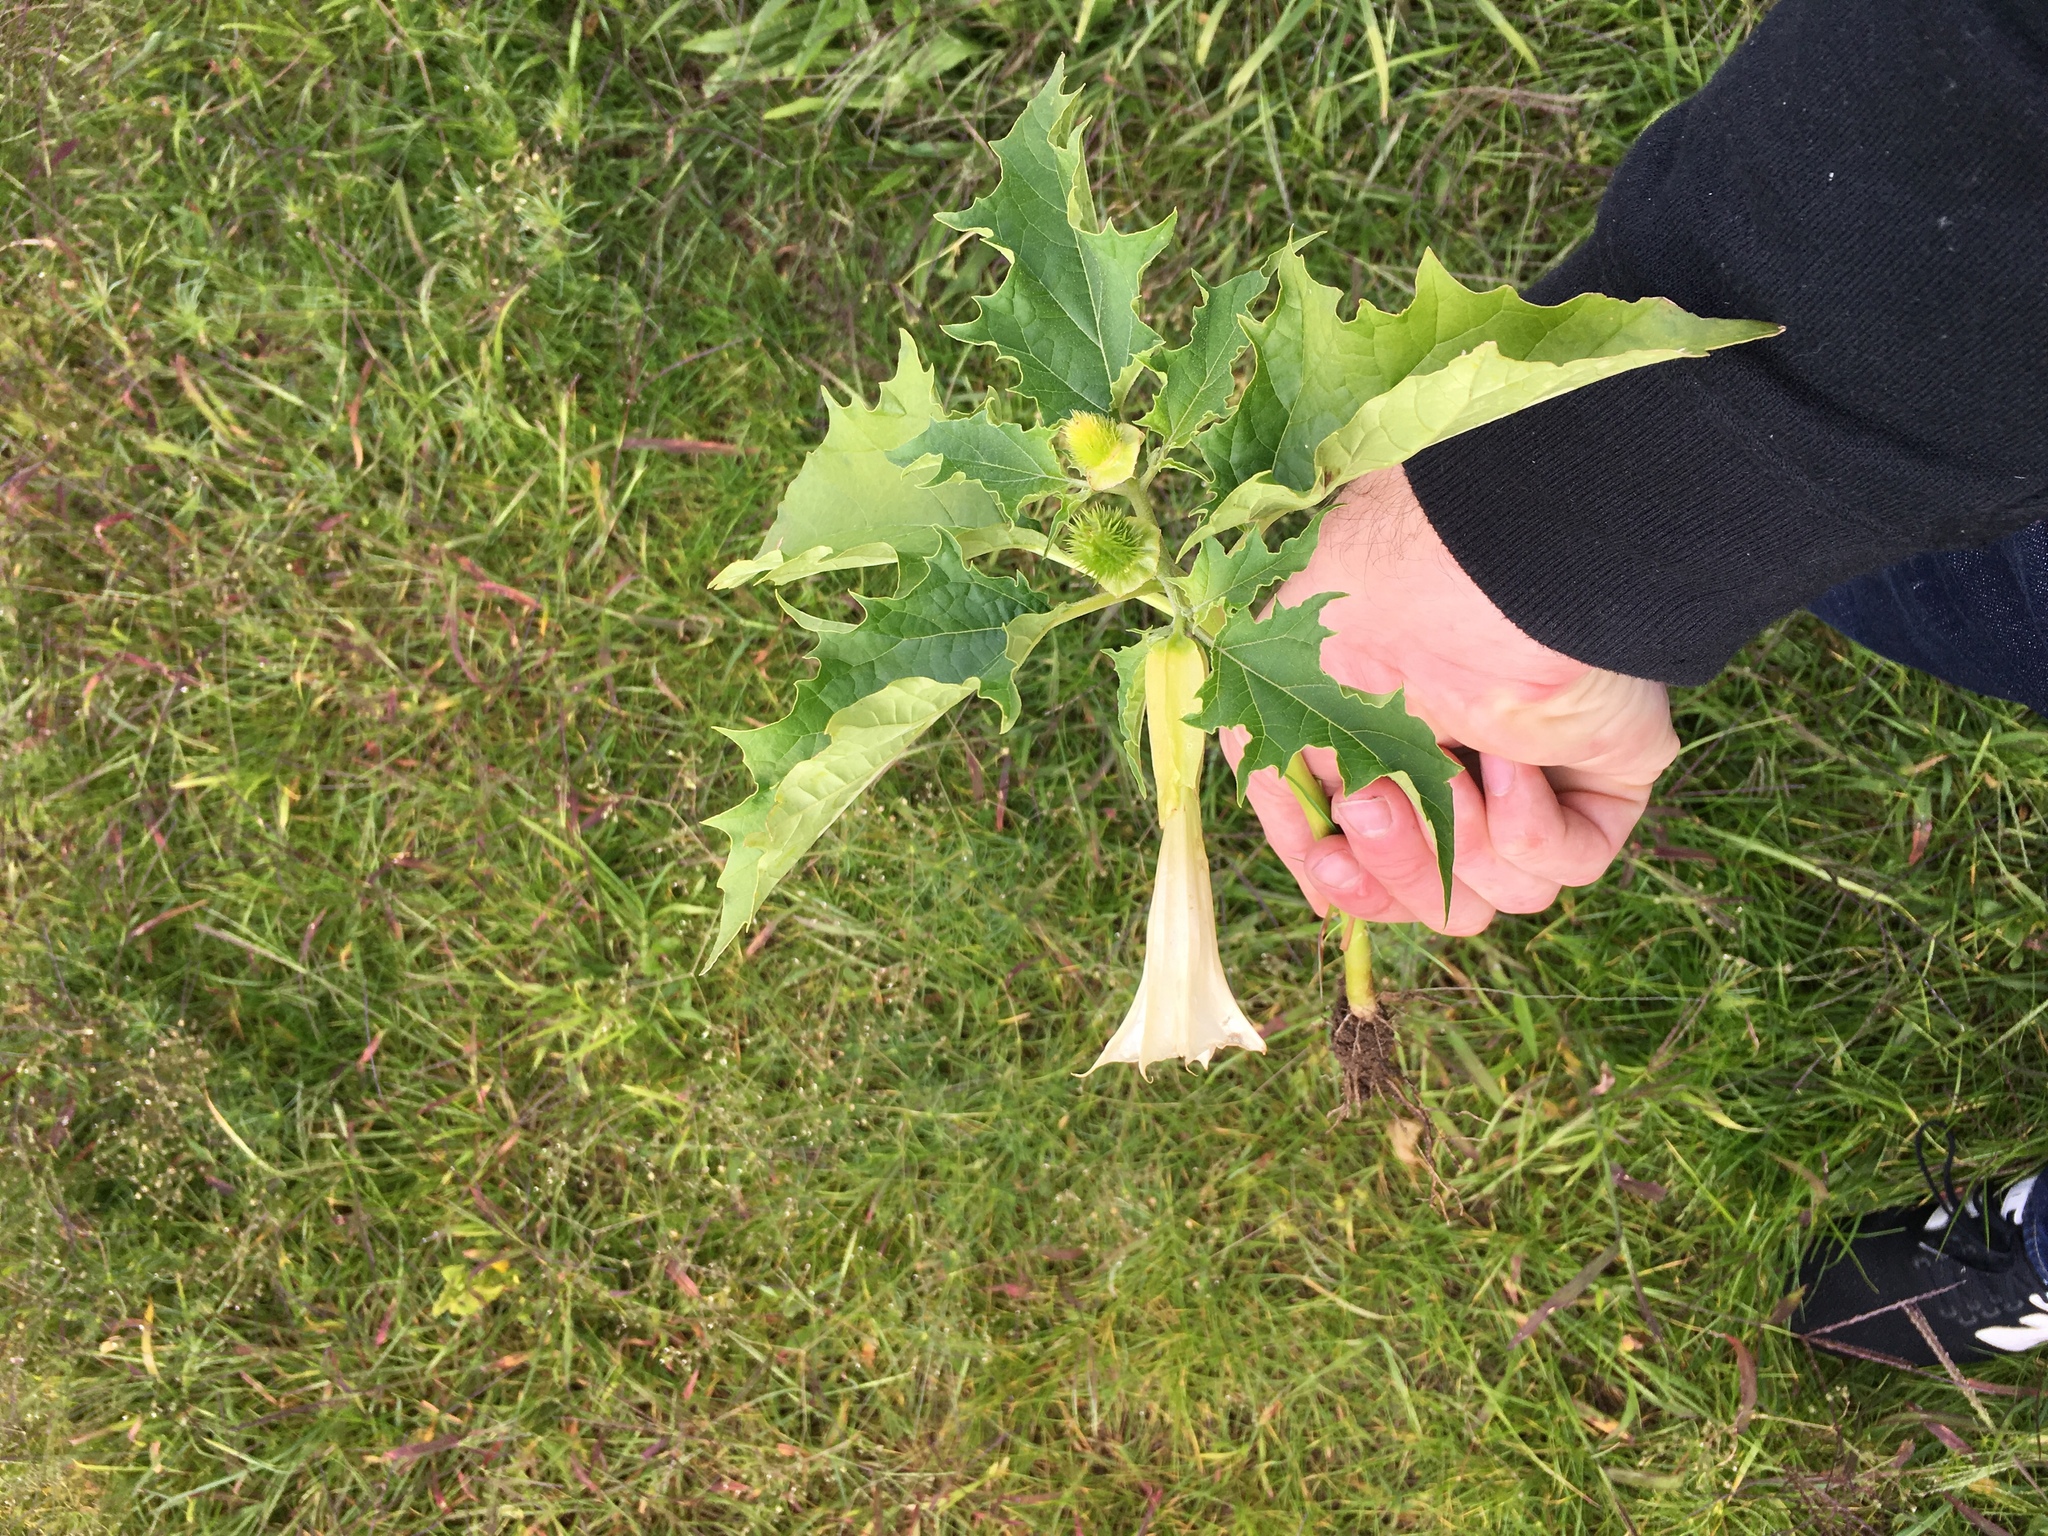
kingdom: Plantae
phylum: Tracheophyta
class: Magnoliopsida
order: Solanales
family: Solanaceae
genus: Datura
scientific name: Datura stramonium
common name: Thorn-apple
